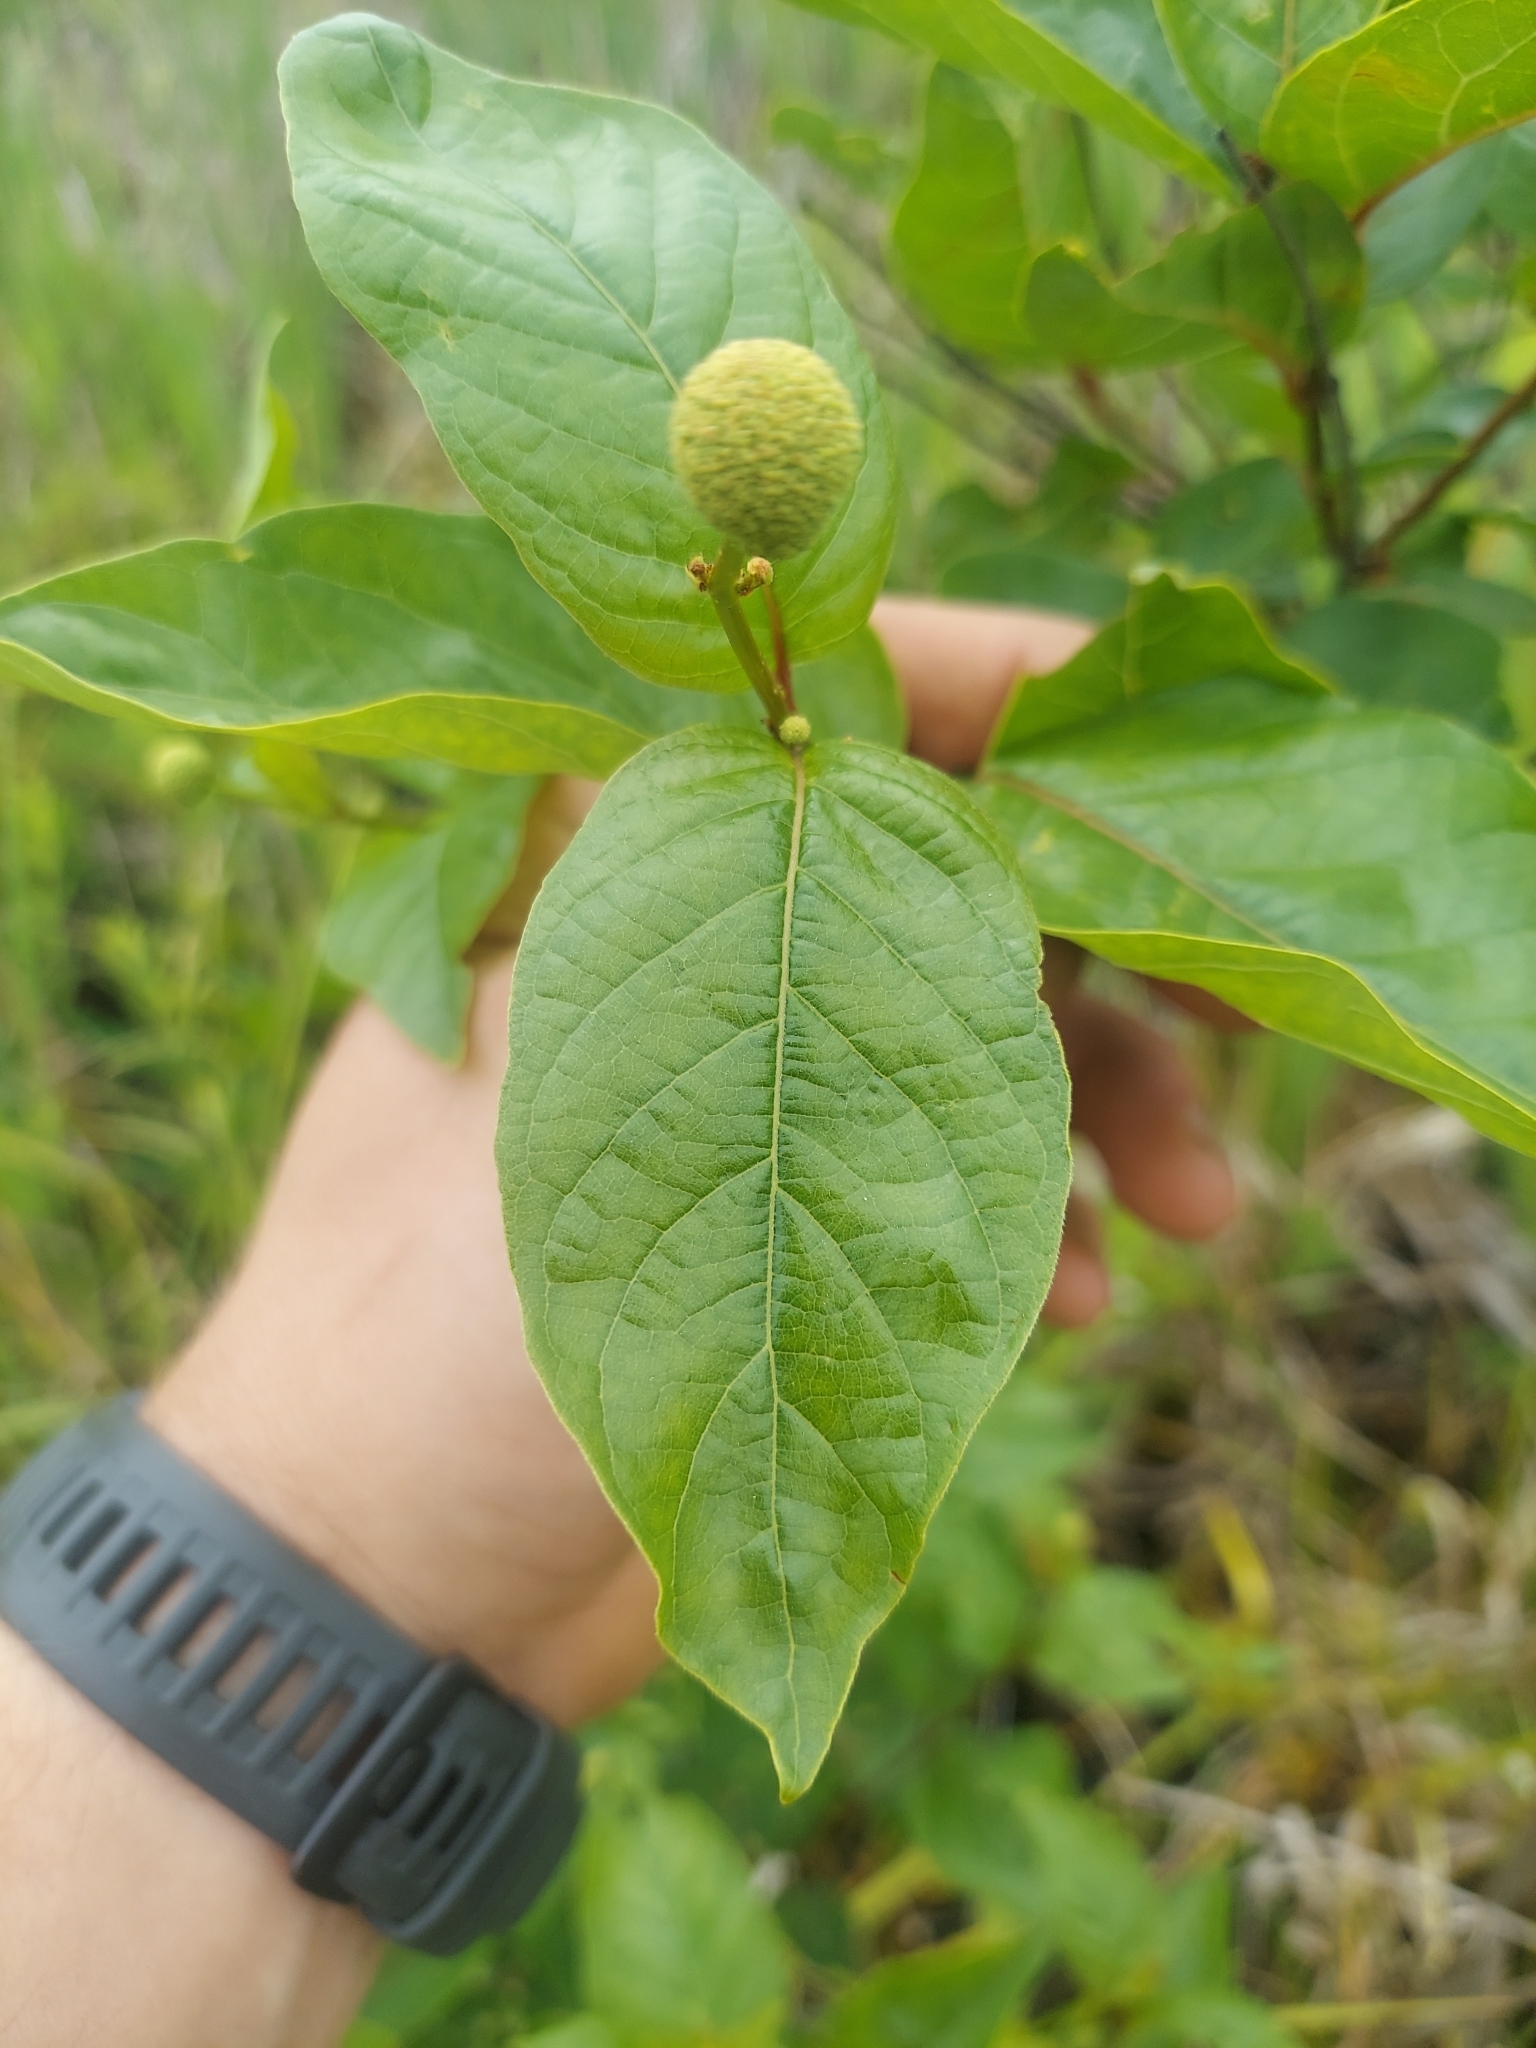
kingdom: Plantae
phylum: Tracheophyta
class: Magnoliopsida
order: Gentianales
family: Rubiaceae
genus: Cephalanthus
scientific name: Cephalanthus occidentalis
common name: Button-willow
